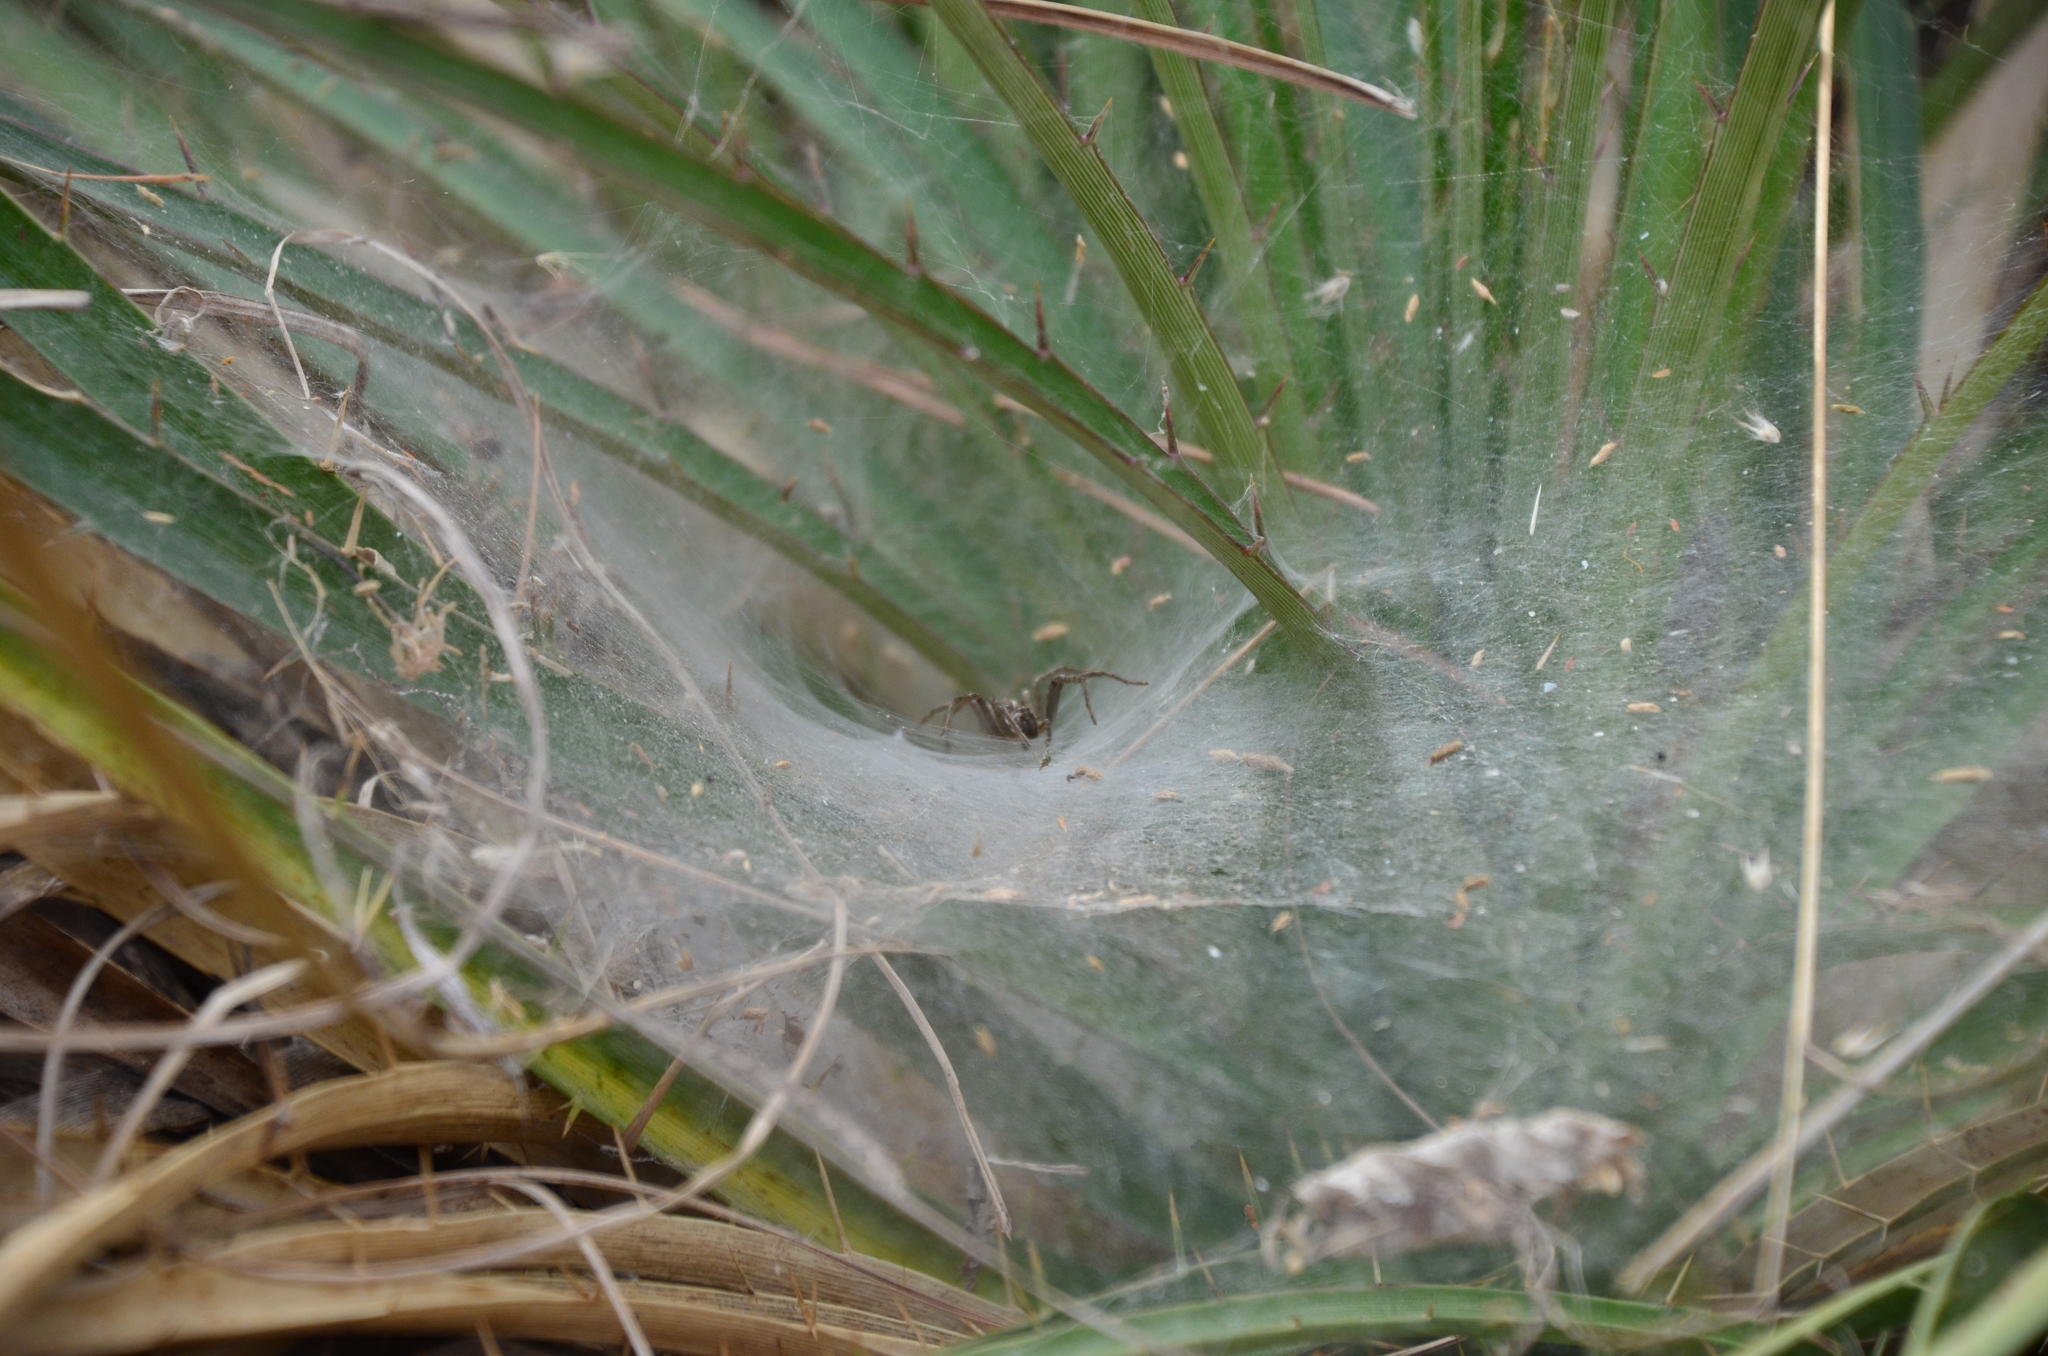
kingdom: Animalia
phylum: Arthropoda
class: Arachnida
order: Araneae
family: Lycosidae
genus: Aglaoctenus
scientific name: Aglaoctenus lagotis
